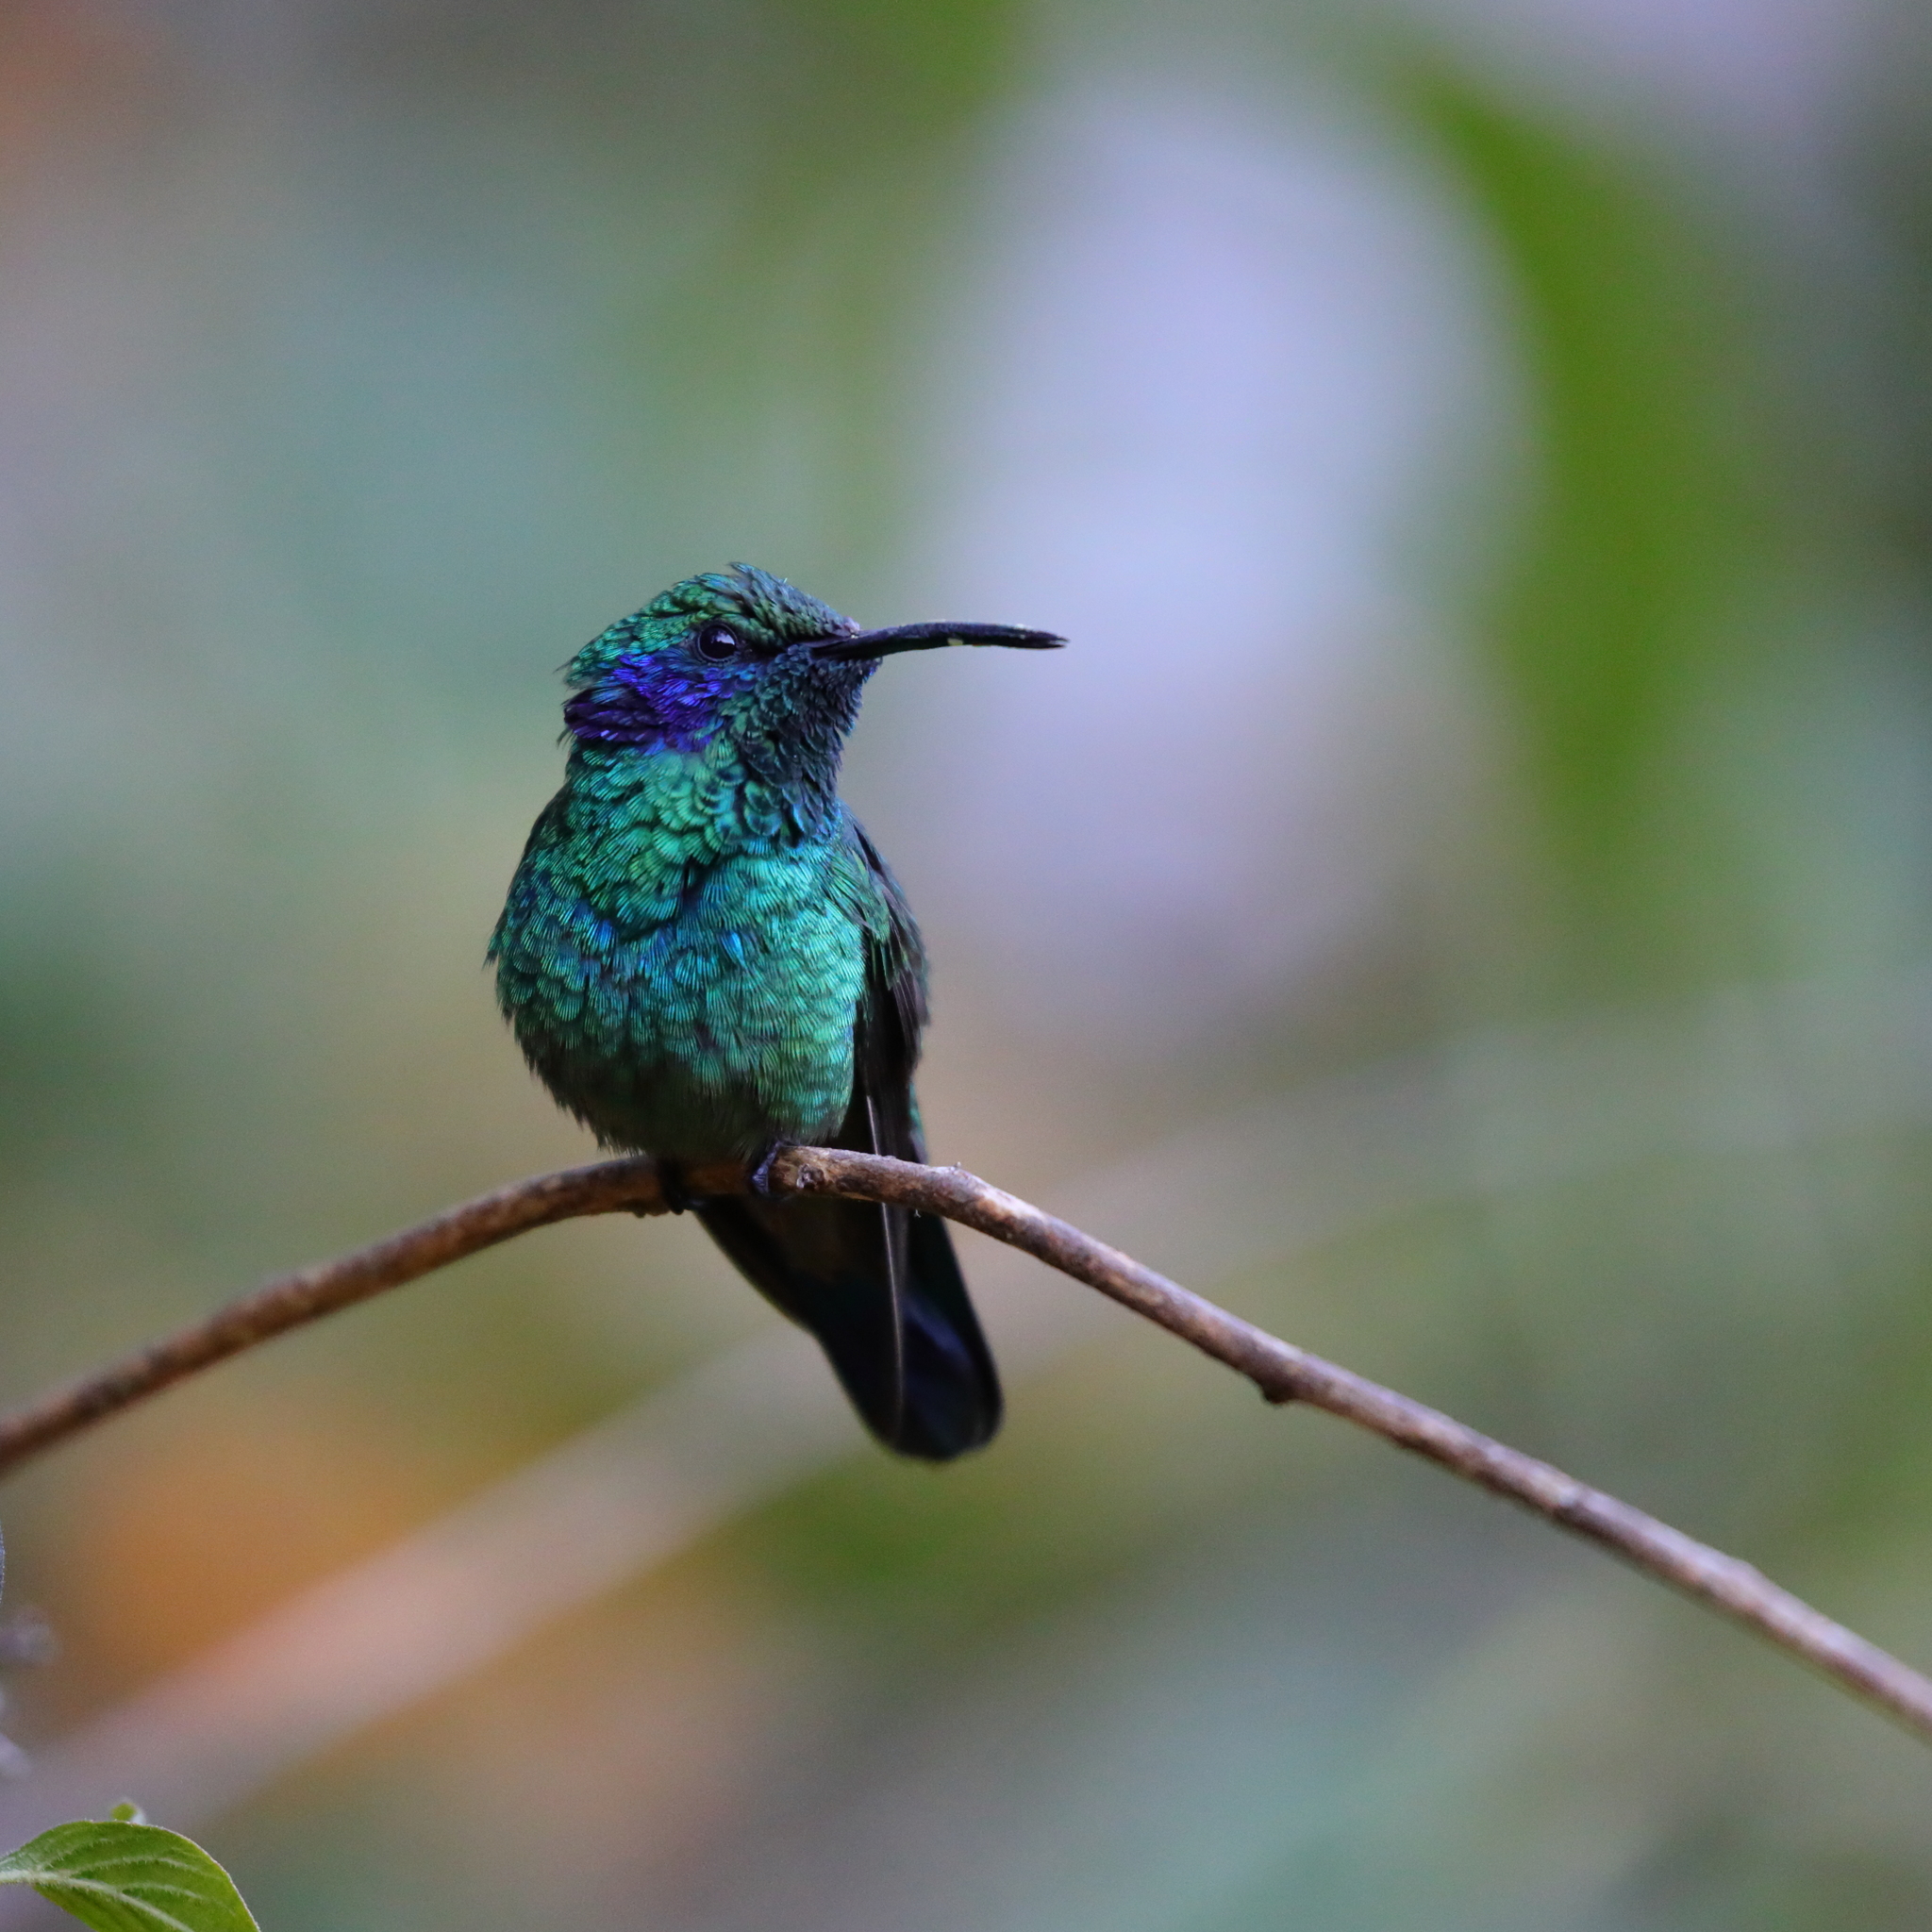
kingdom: Animalia
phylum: Chordata
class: Aves
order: Apodiformes
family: Trochilidae
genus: Colibri
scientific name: Colibri cyanotus
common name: Lesser violetear
